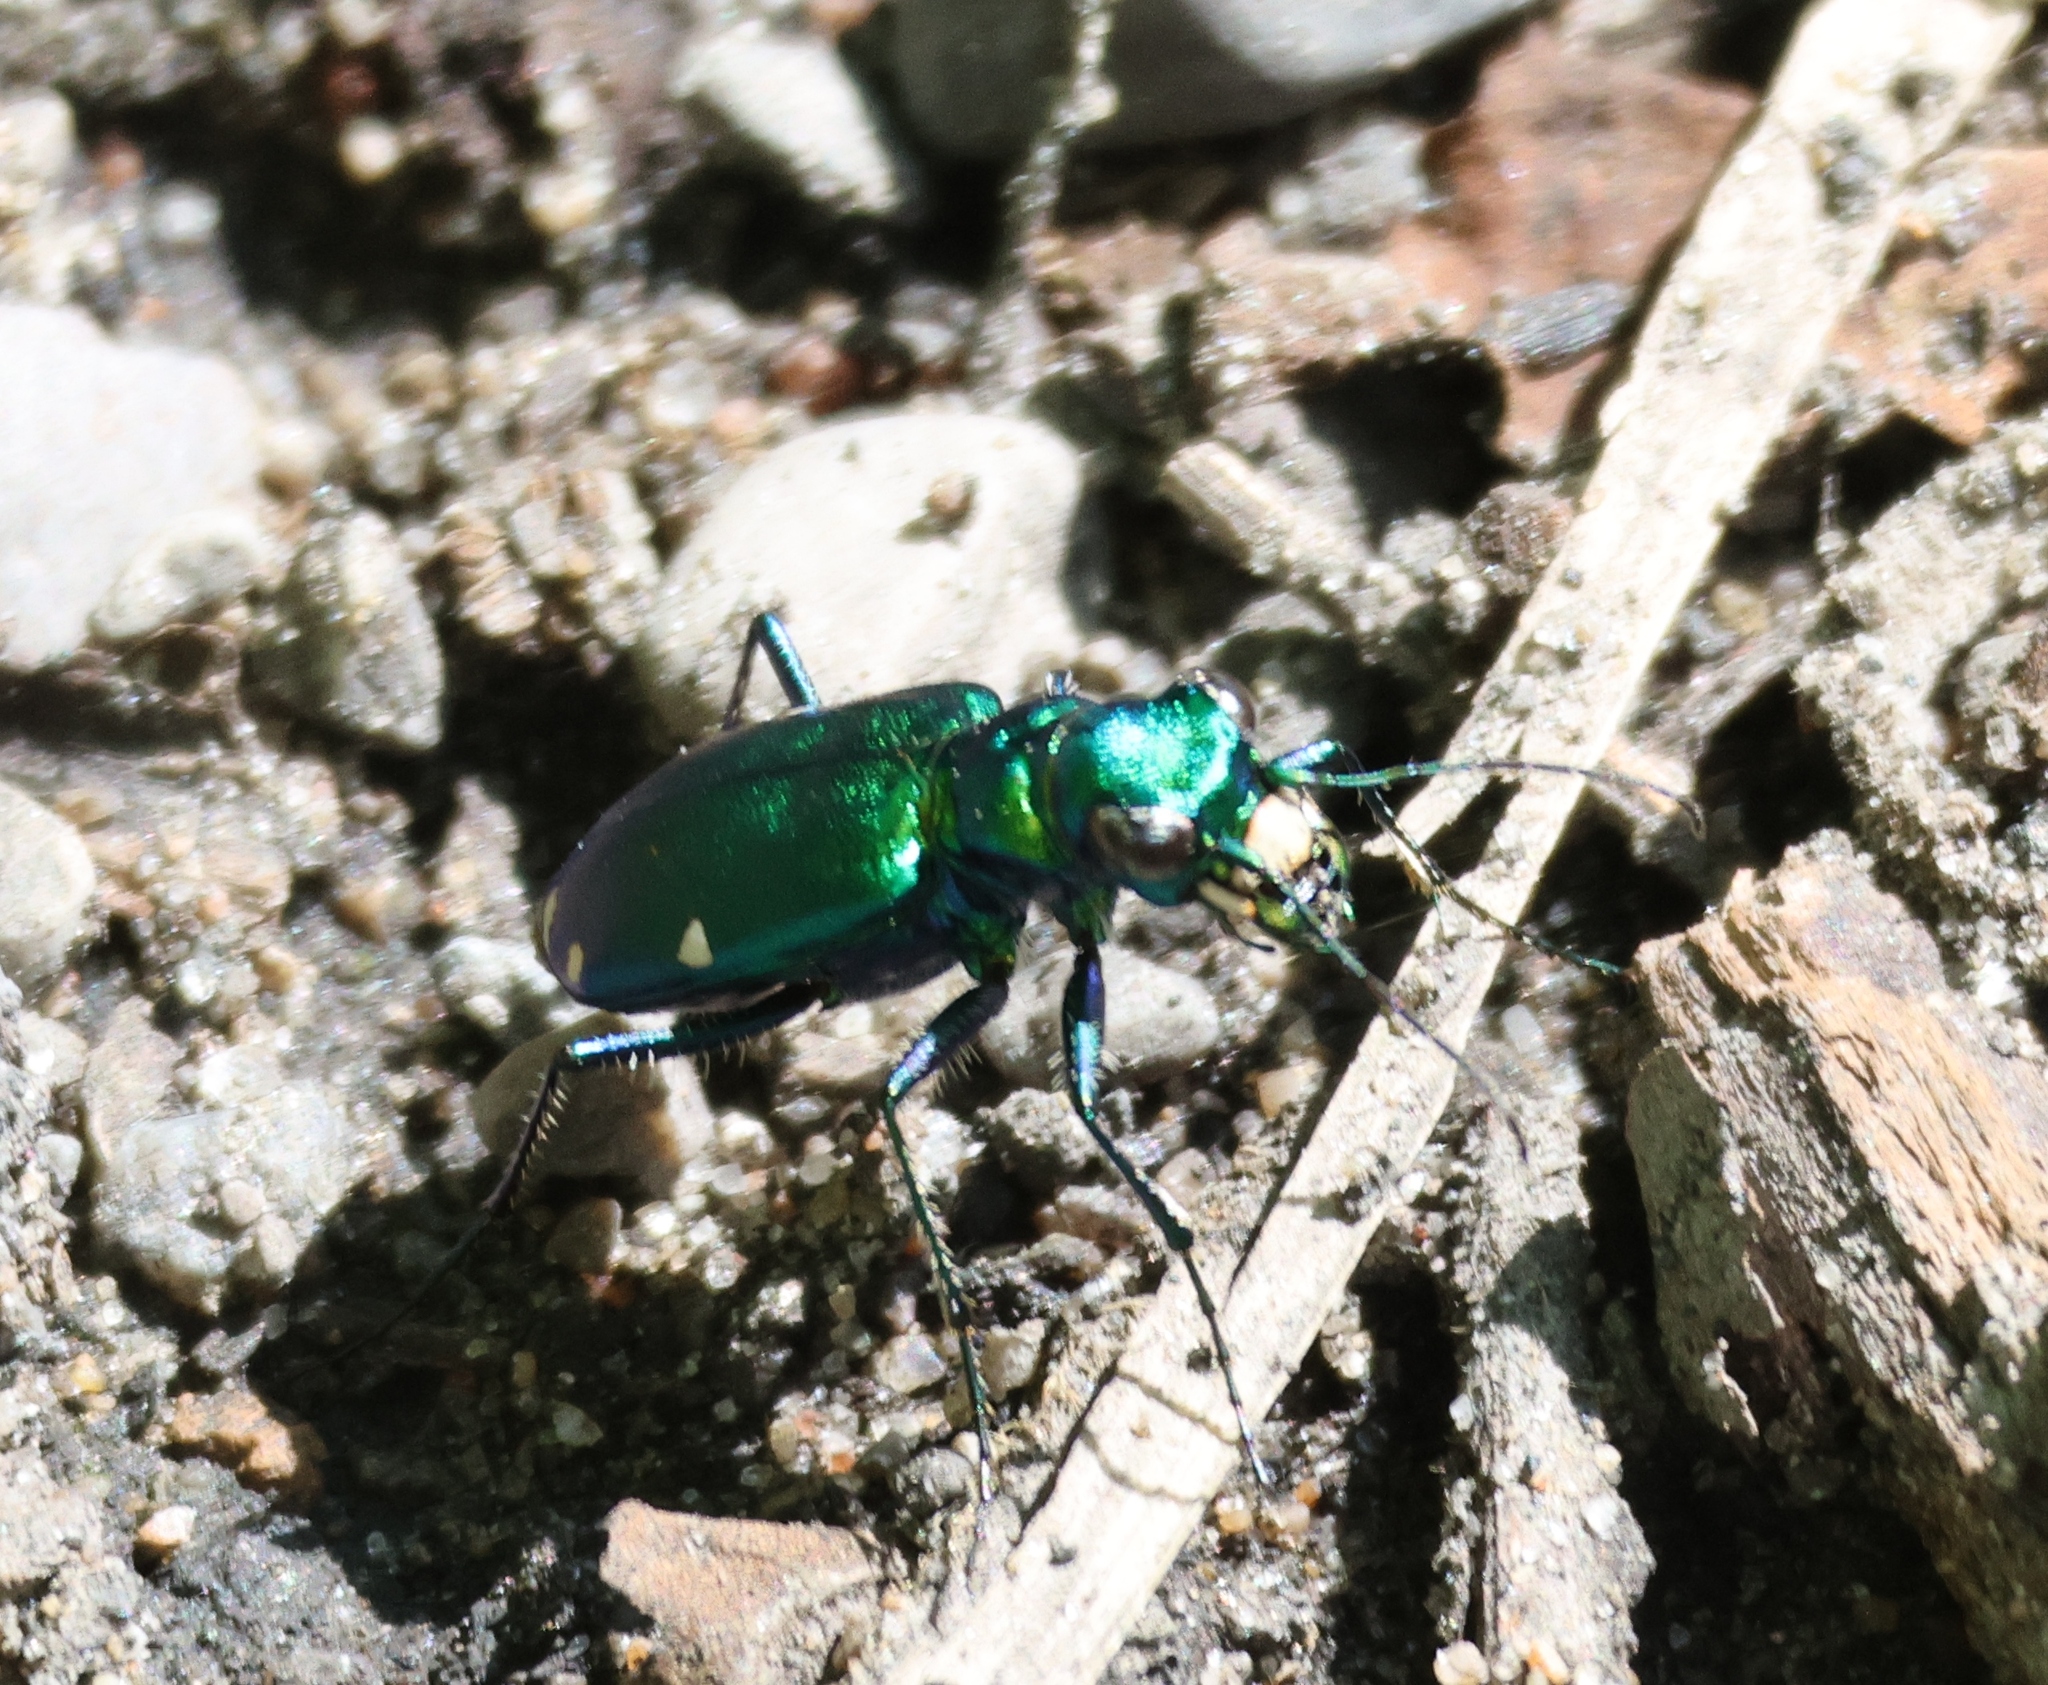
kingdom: Animalia
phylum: Arthropoda
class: Insecta
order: Coleoptera
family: Carabidae
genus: Cicindela
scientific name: Cicindela sexguttata
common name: Six-spotted tiger beetle
